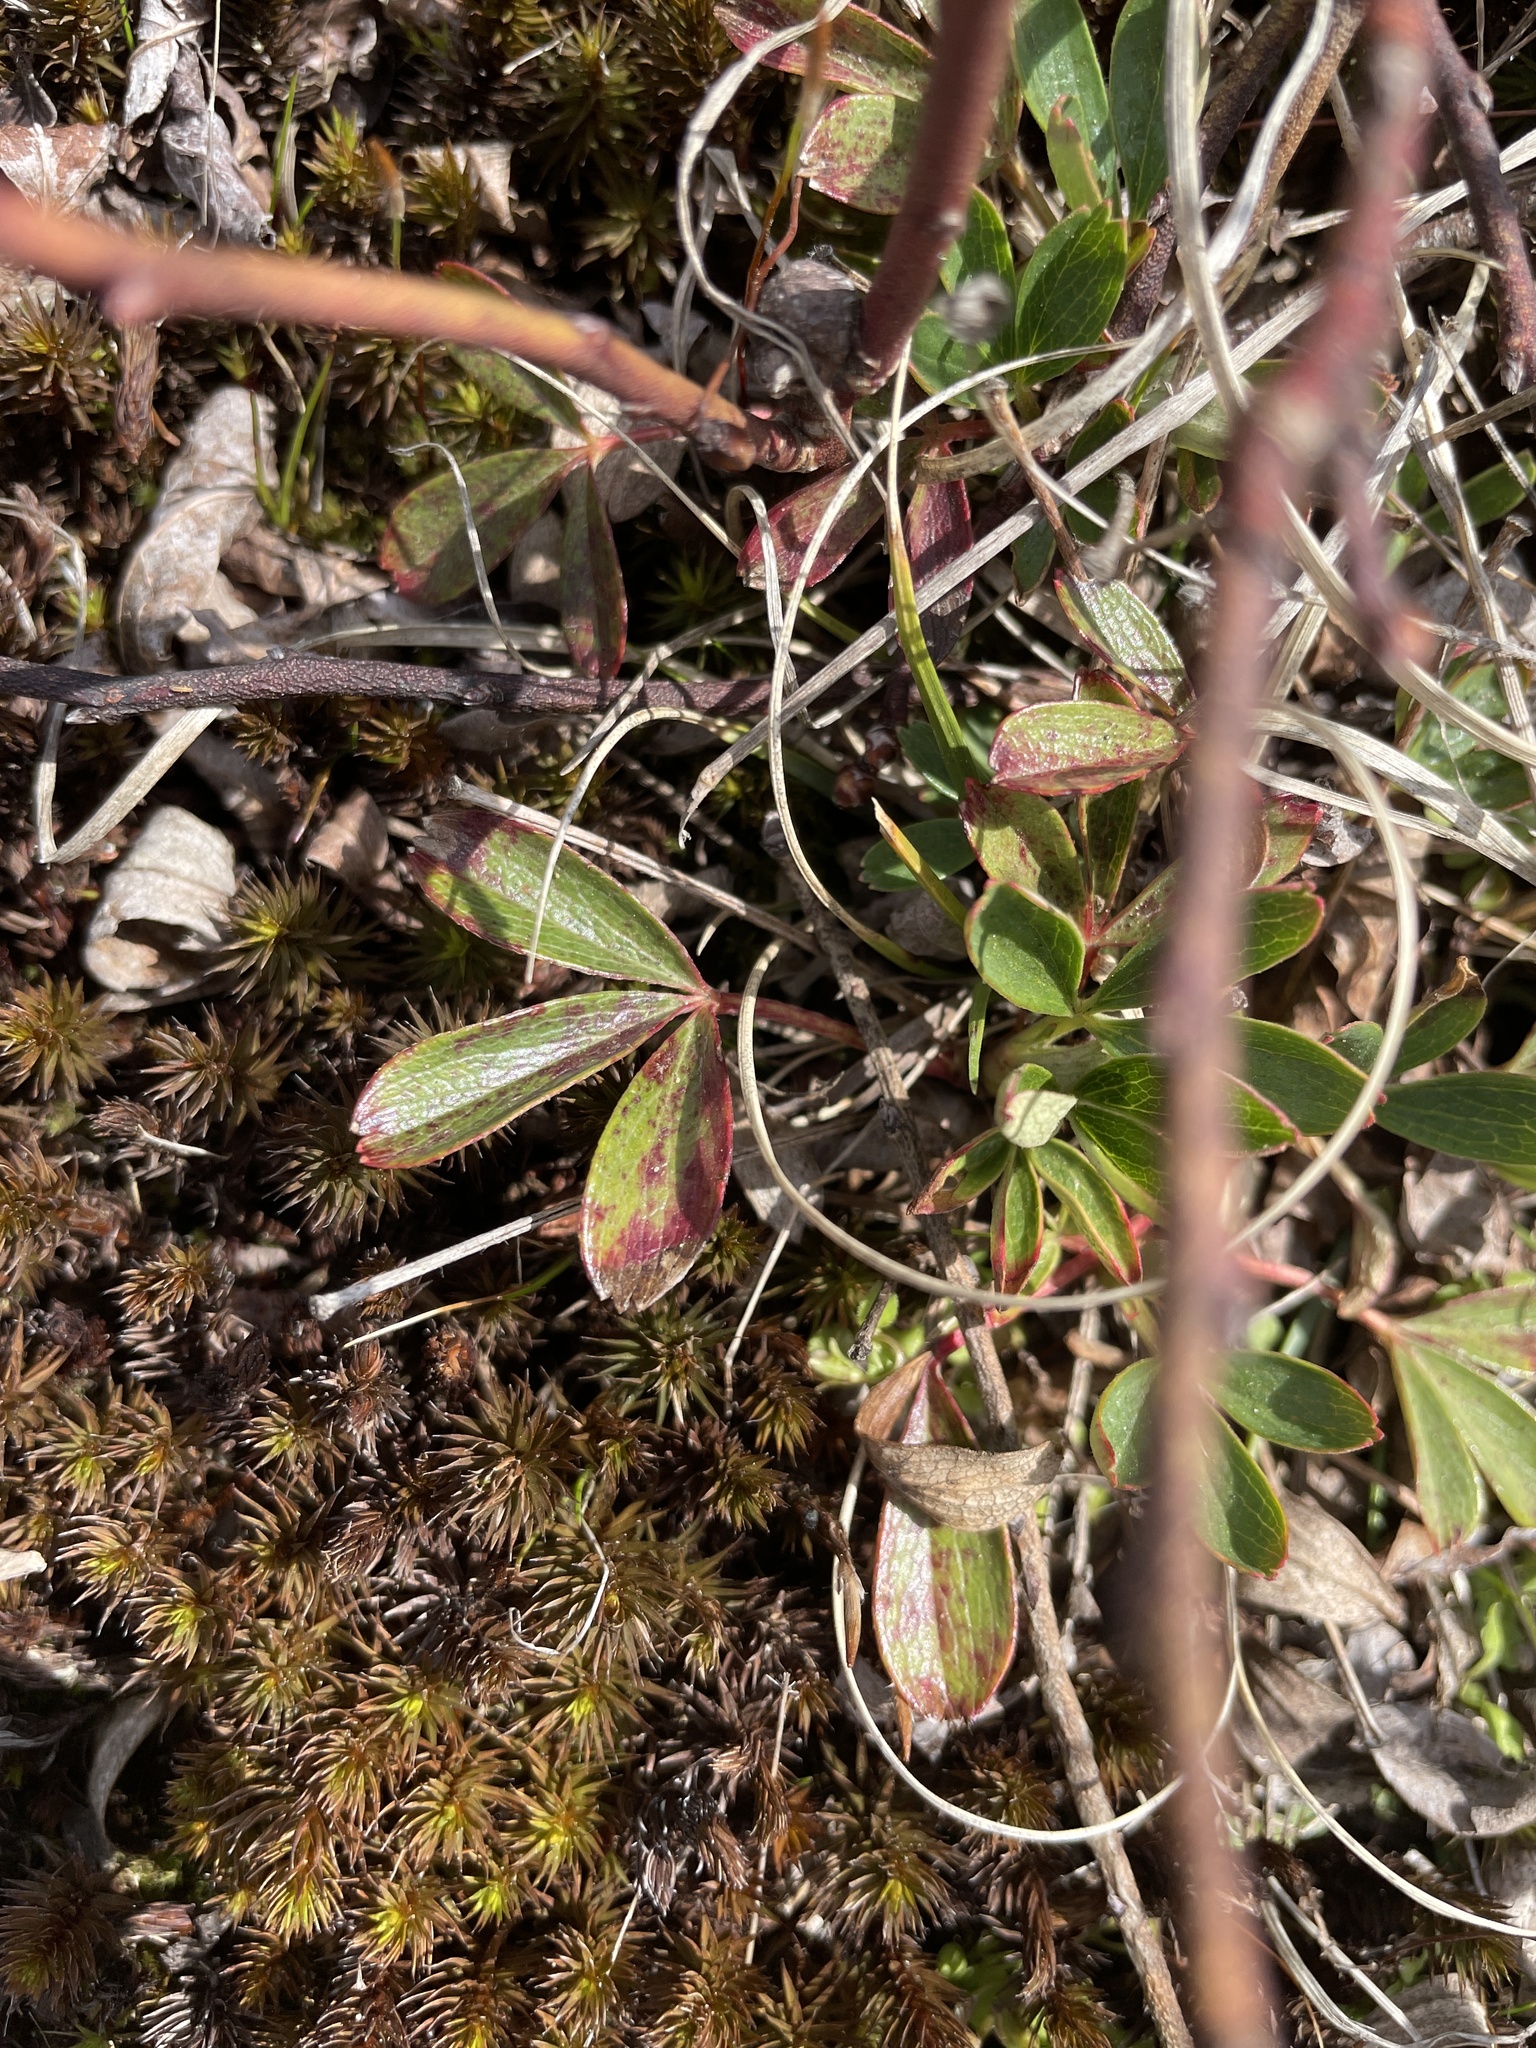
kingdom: Plantae
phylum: Tracheophyta
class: Magnoliopsida
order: Rosales
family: Rosaceae
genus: Sibbaldia
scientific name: Sibbaldia tridentata
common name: Three-toothed cinquefoil
